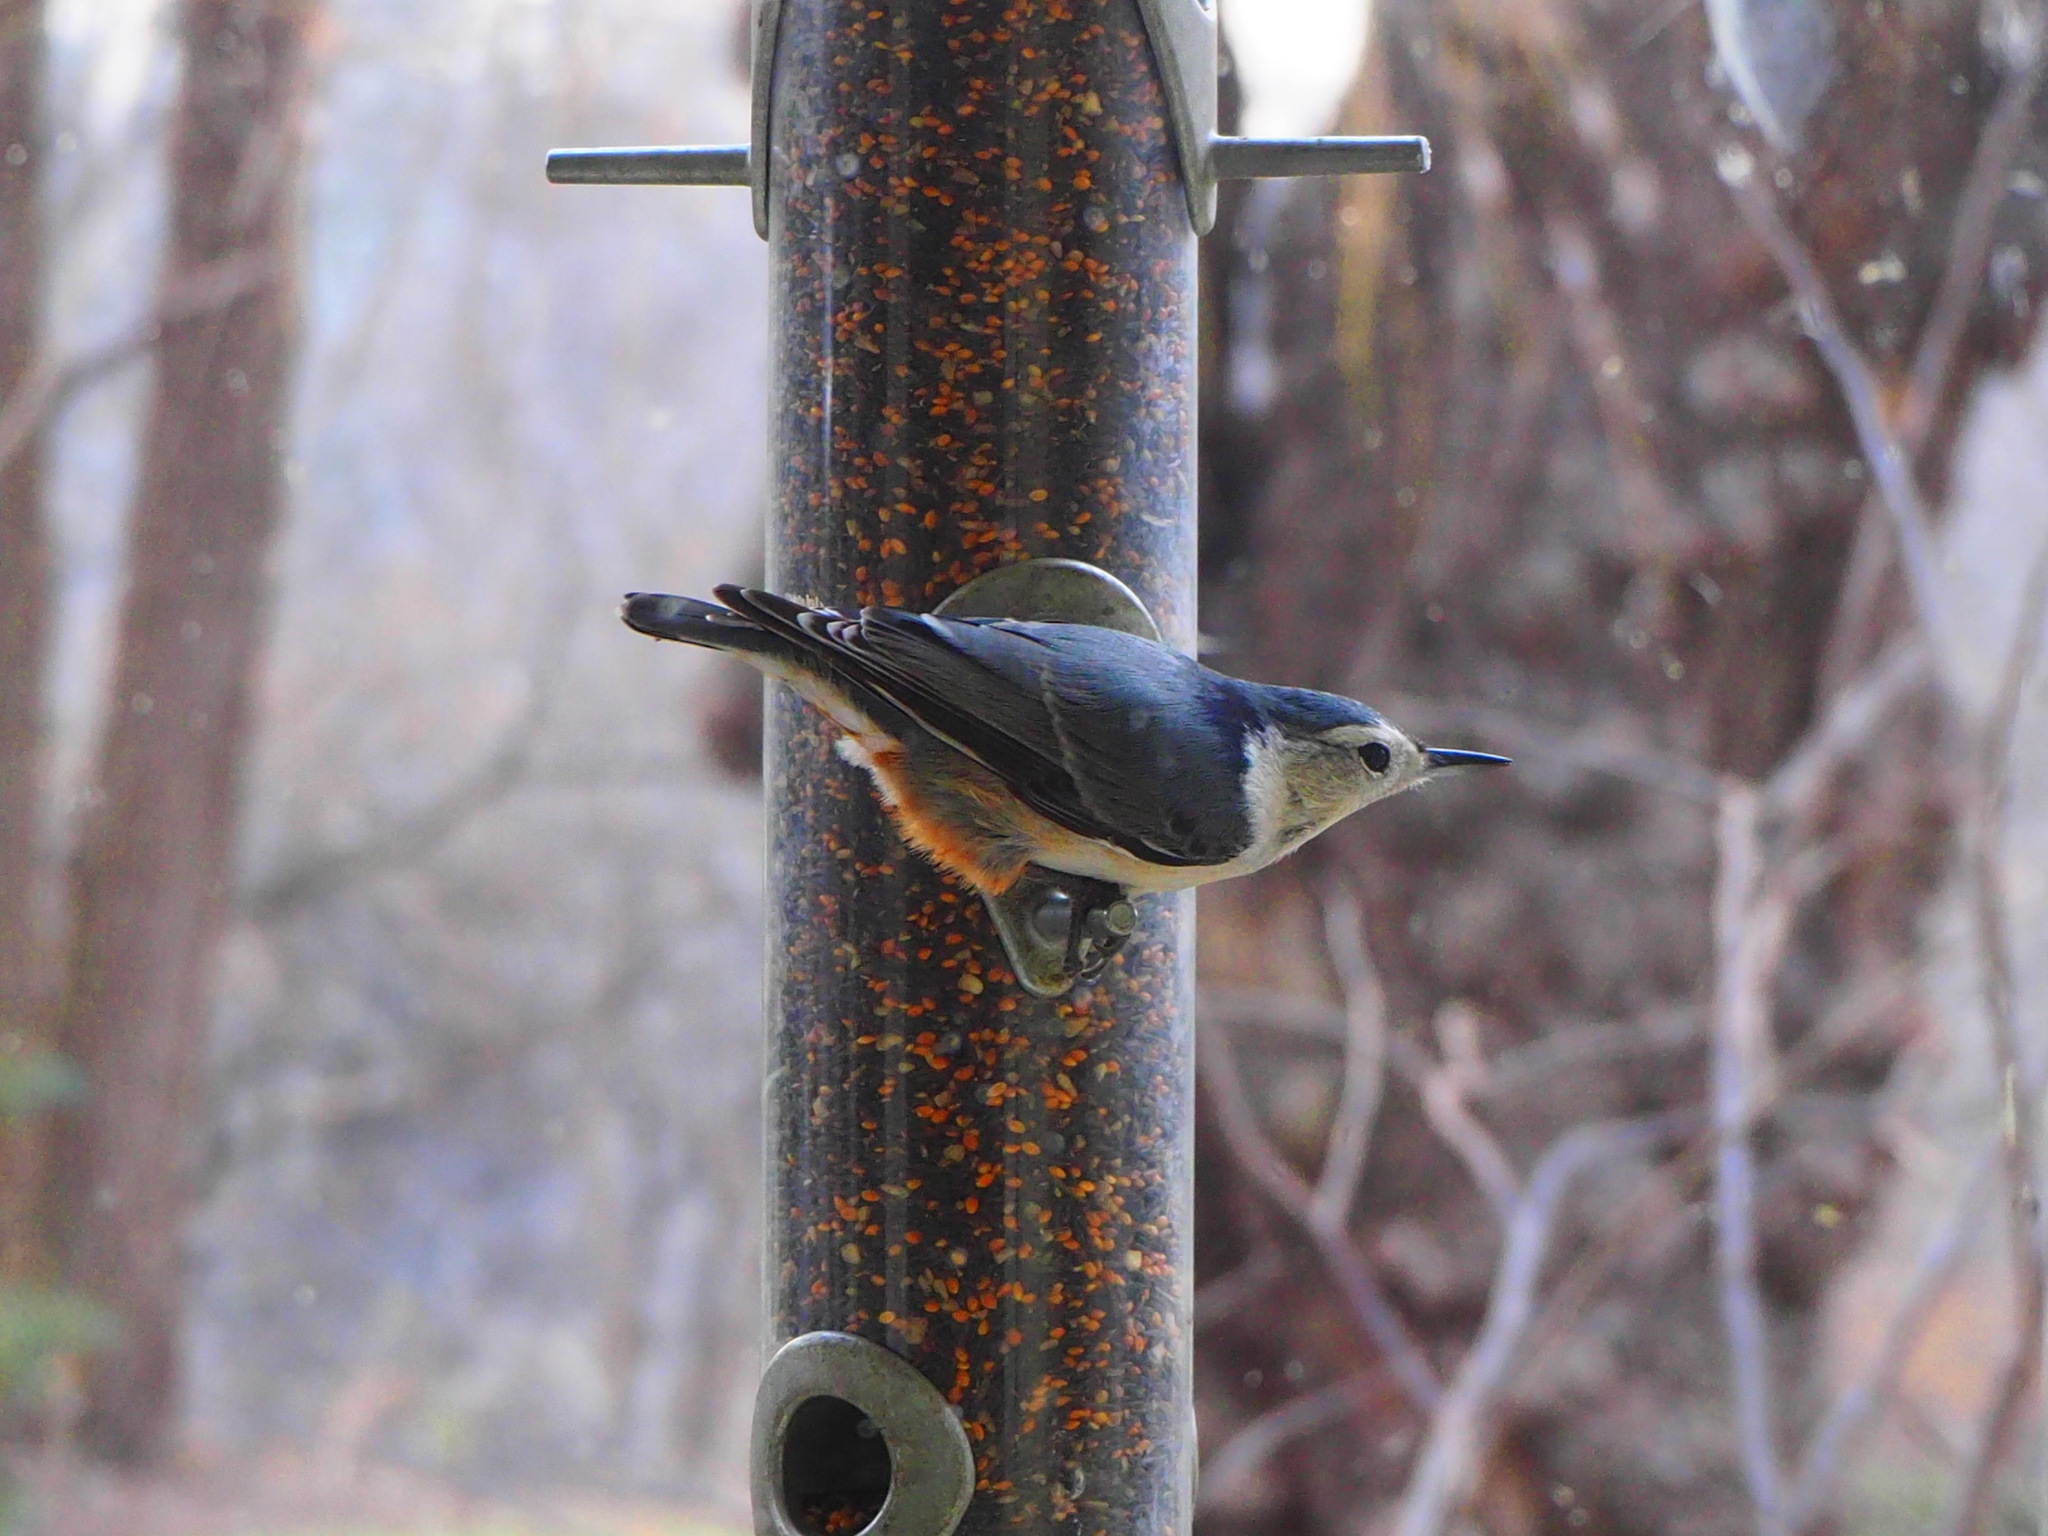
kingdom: Animalia
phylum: Chordata
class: Aves
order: Passeriformes
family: Sittidae
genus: Sitta
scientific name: Sitta carolinensis
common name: White-breasted nuthatch
